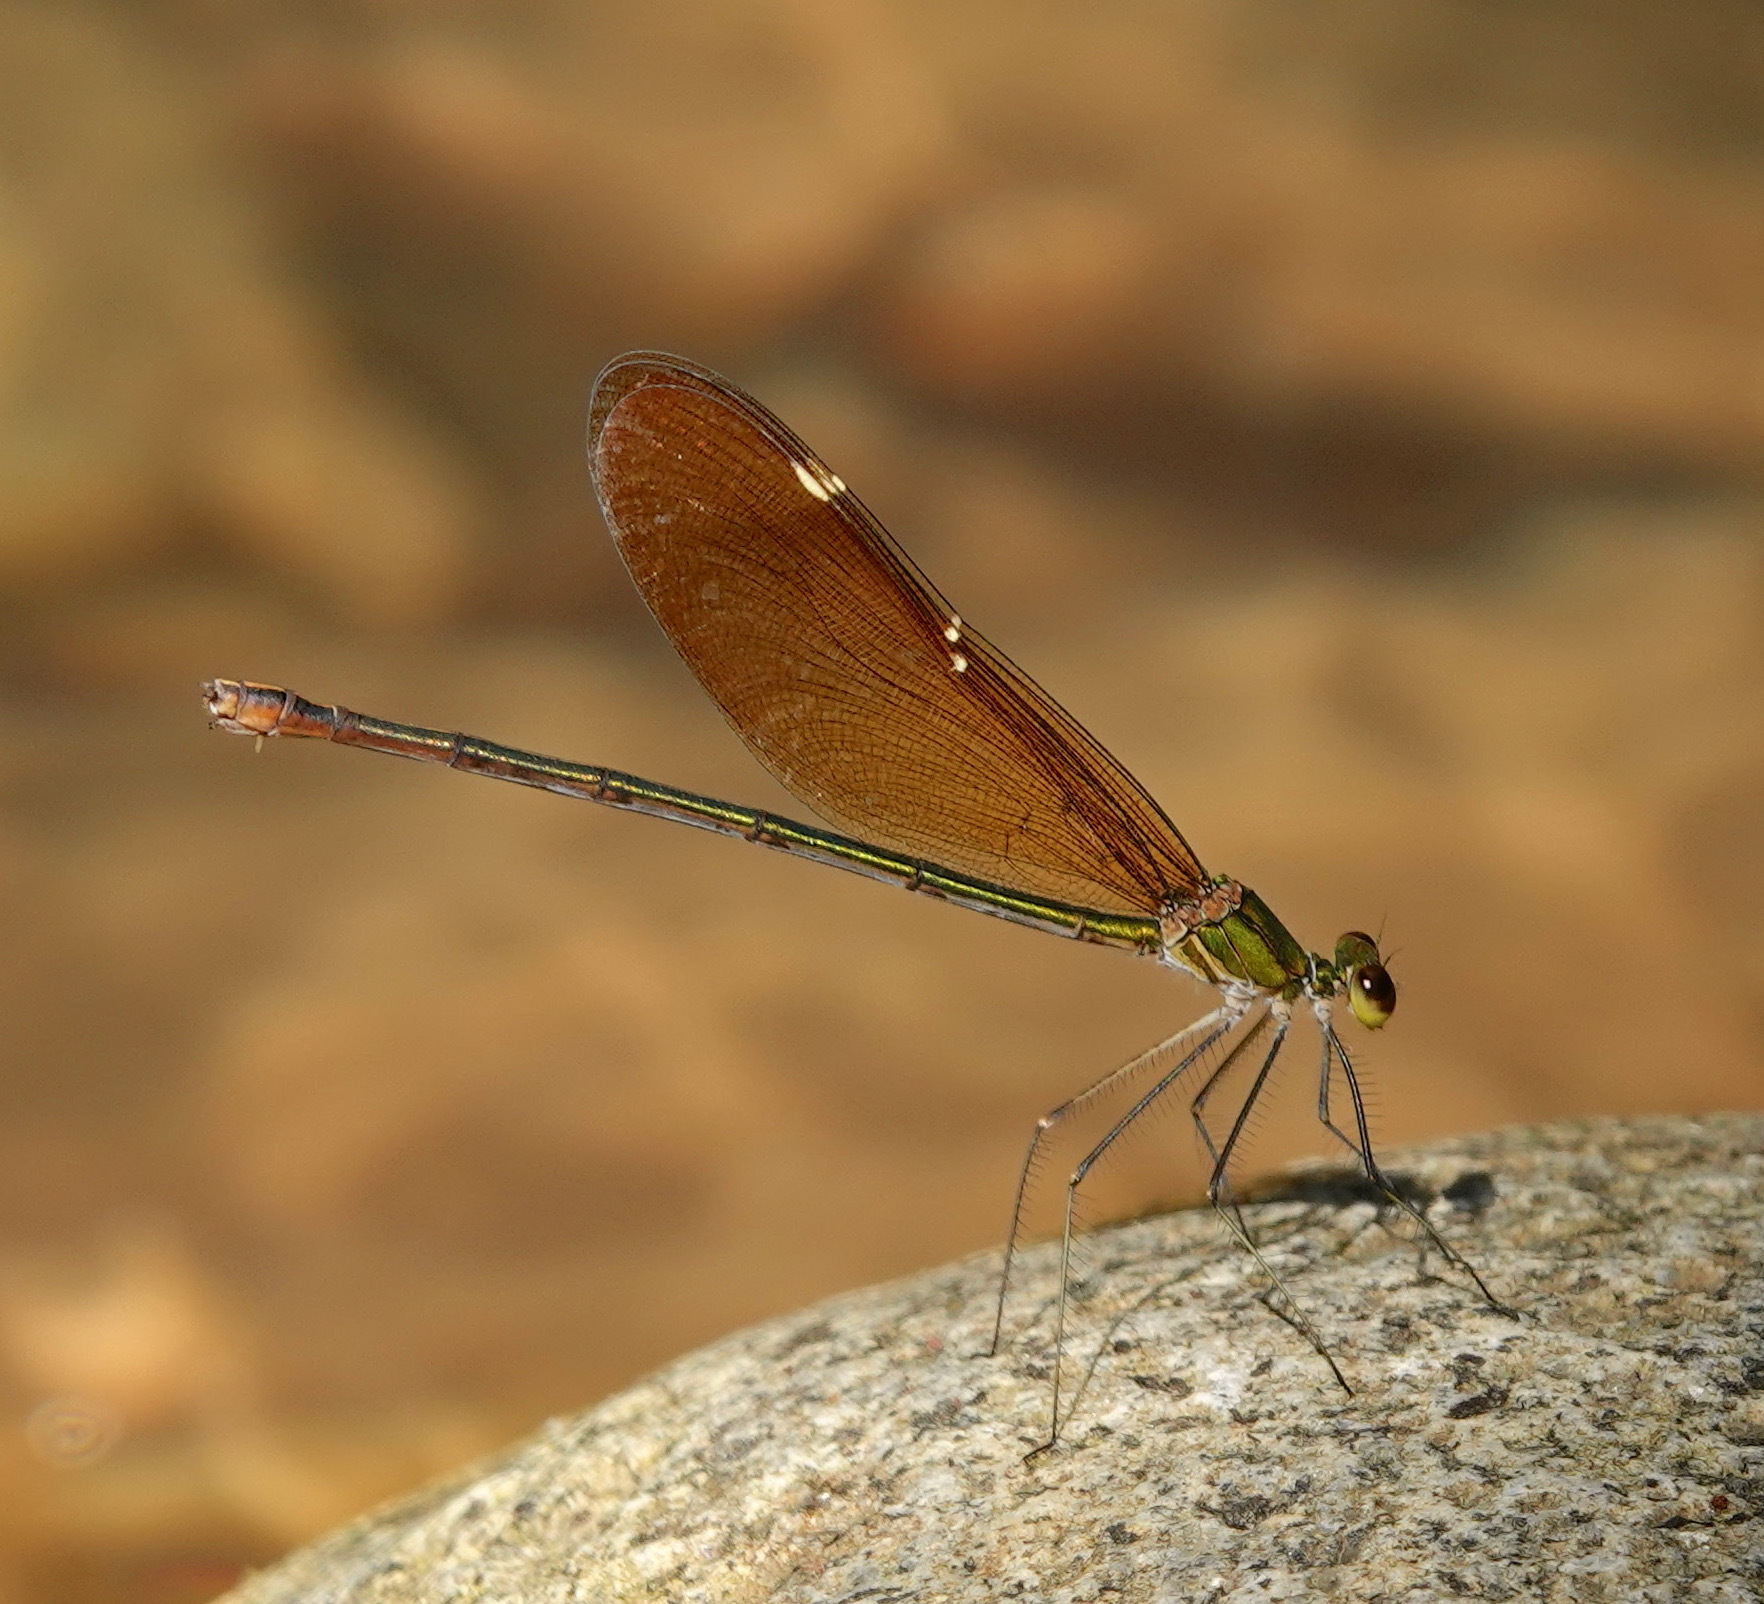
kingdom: Animalia
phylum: Arthropoda
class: Insecta
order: Odonata
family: Calopterygidae
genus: Neurobasis
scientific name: Neurobasis chinensis
